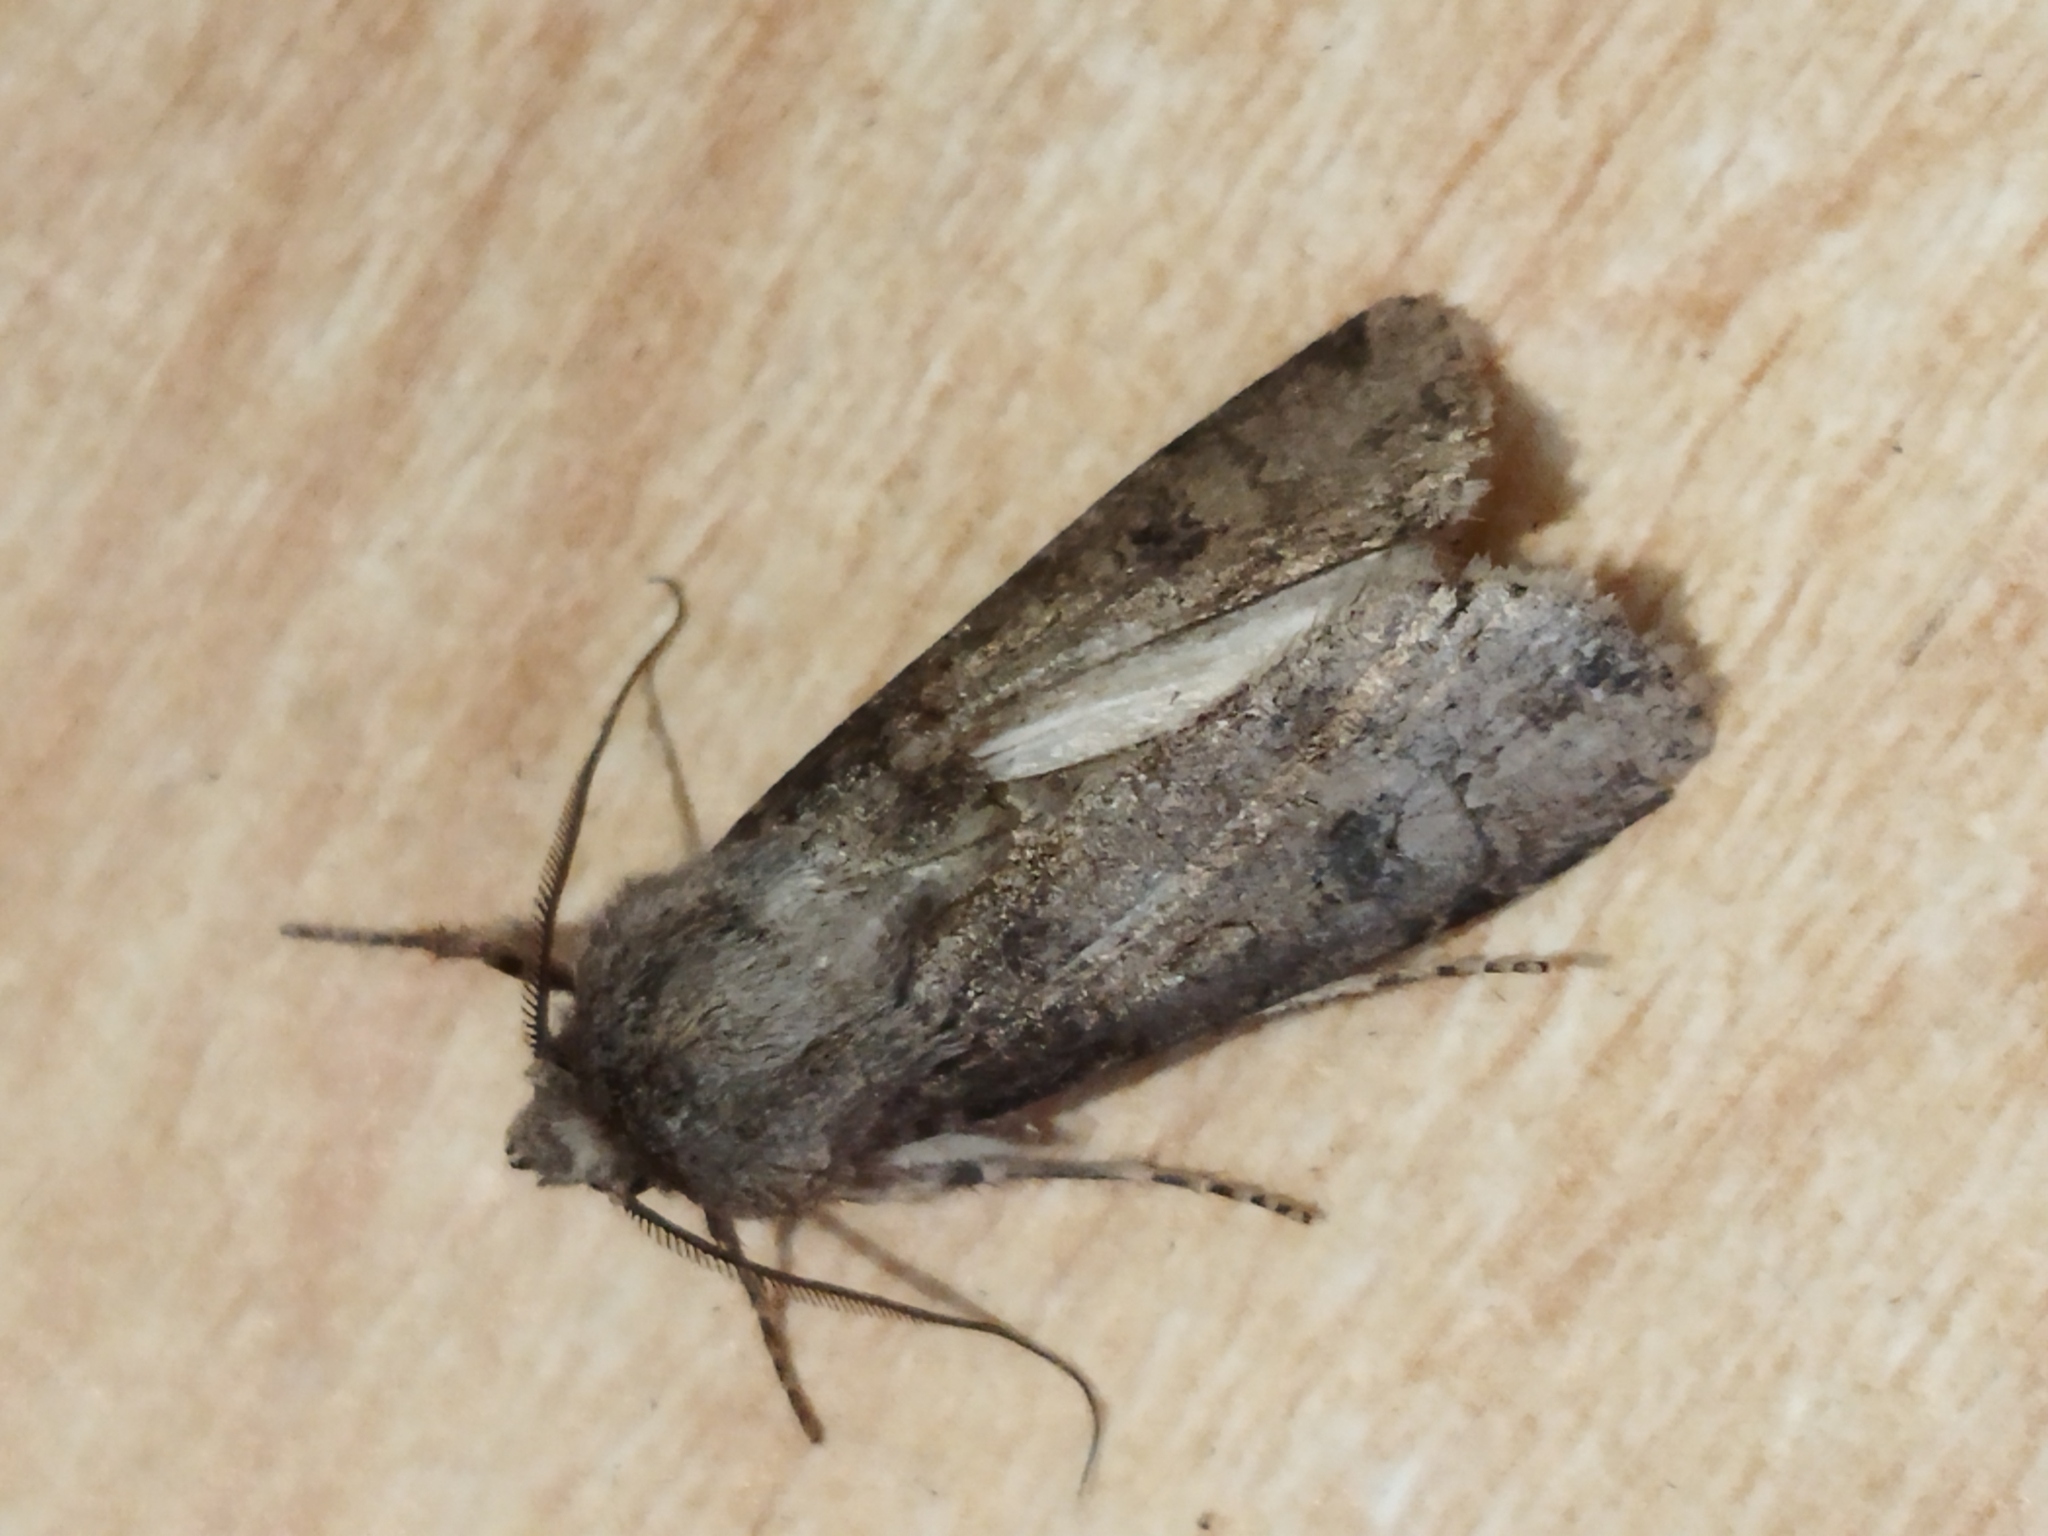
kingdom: Animalia
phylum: Arthropoda
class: Insecta
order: Lepidoptera
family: Noctuidae
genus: Agrotis
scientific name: Agrotis segetum
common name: Turnip moth
